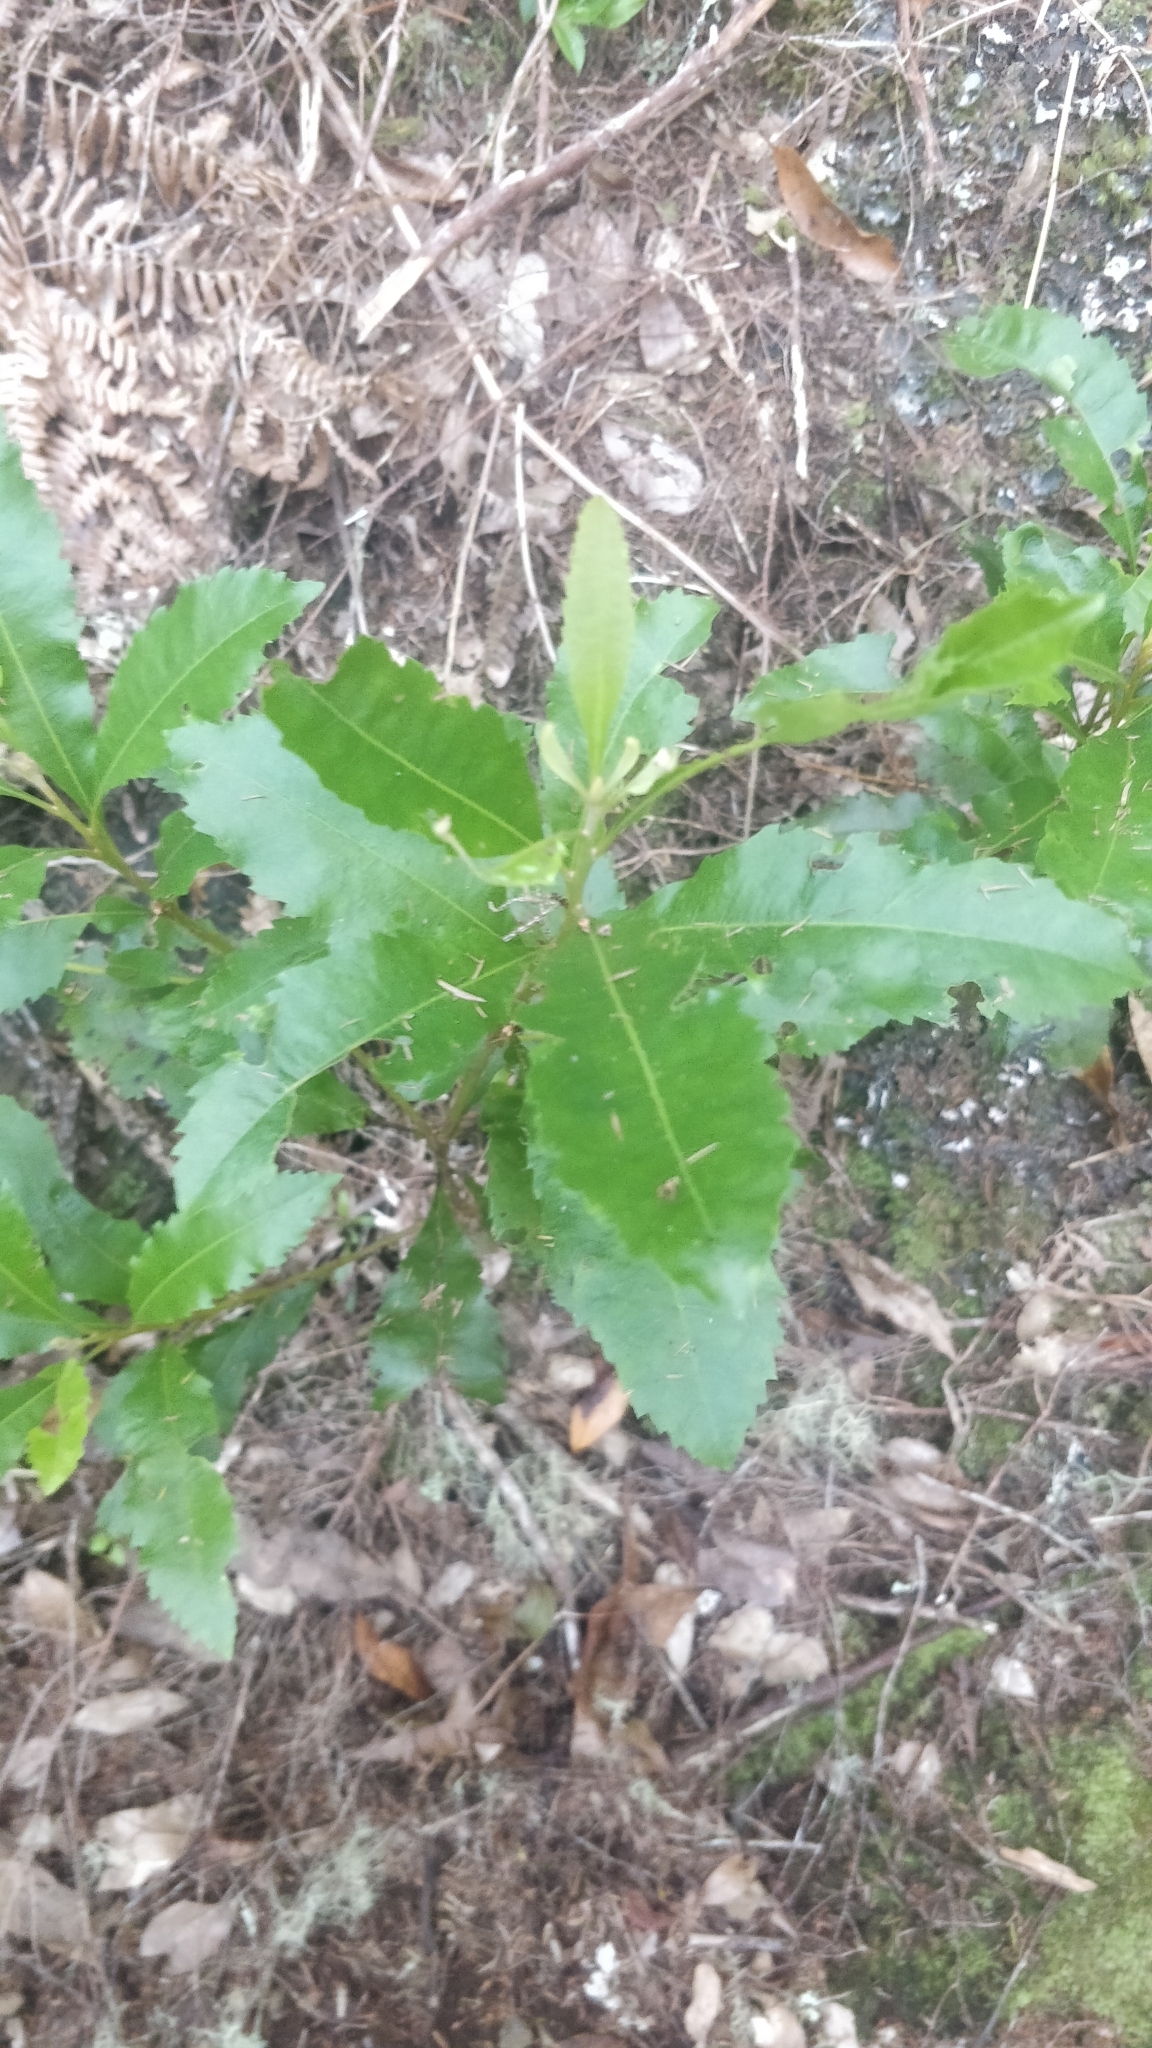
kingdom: Plantae
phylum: Tracheophyta
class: Magnoliopsida
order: Fagales
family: Myricaceae
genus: Morella
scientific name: Morella faya
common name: Firetree
